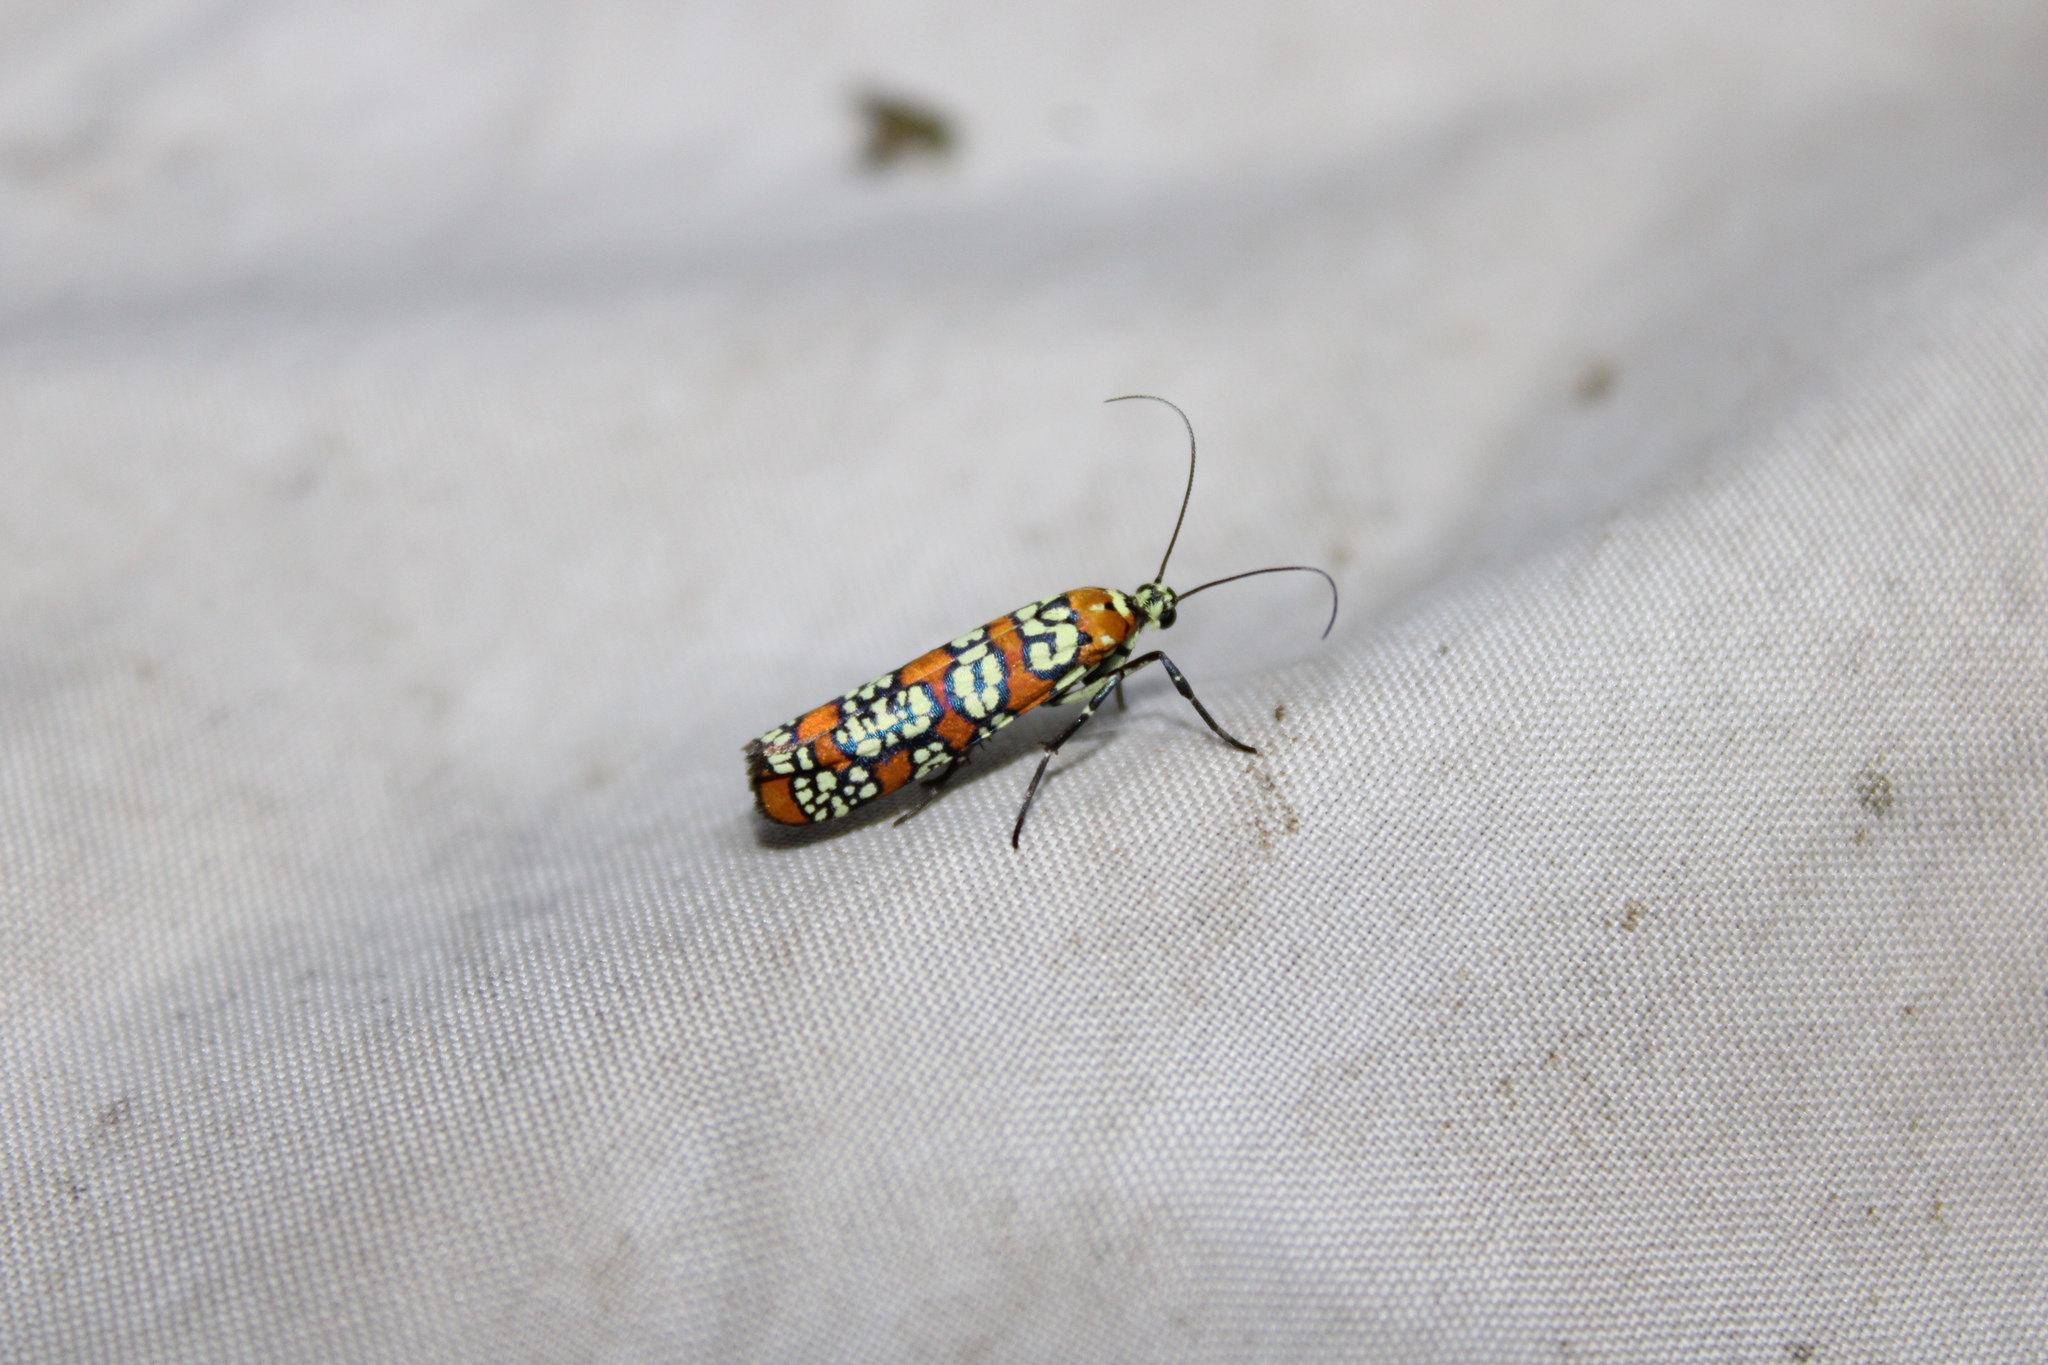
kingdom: Animalia
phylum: Arthropoda
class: Insecta
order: Lepidoptera
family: Attevidae
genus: Atteva
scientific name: Atteva punctella
